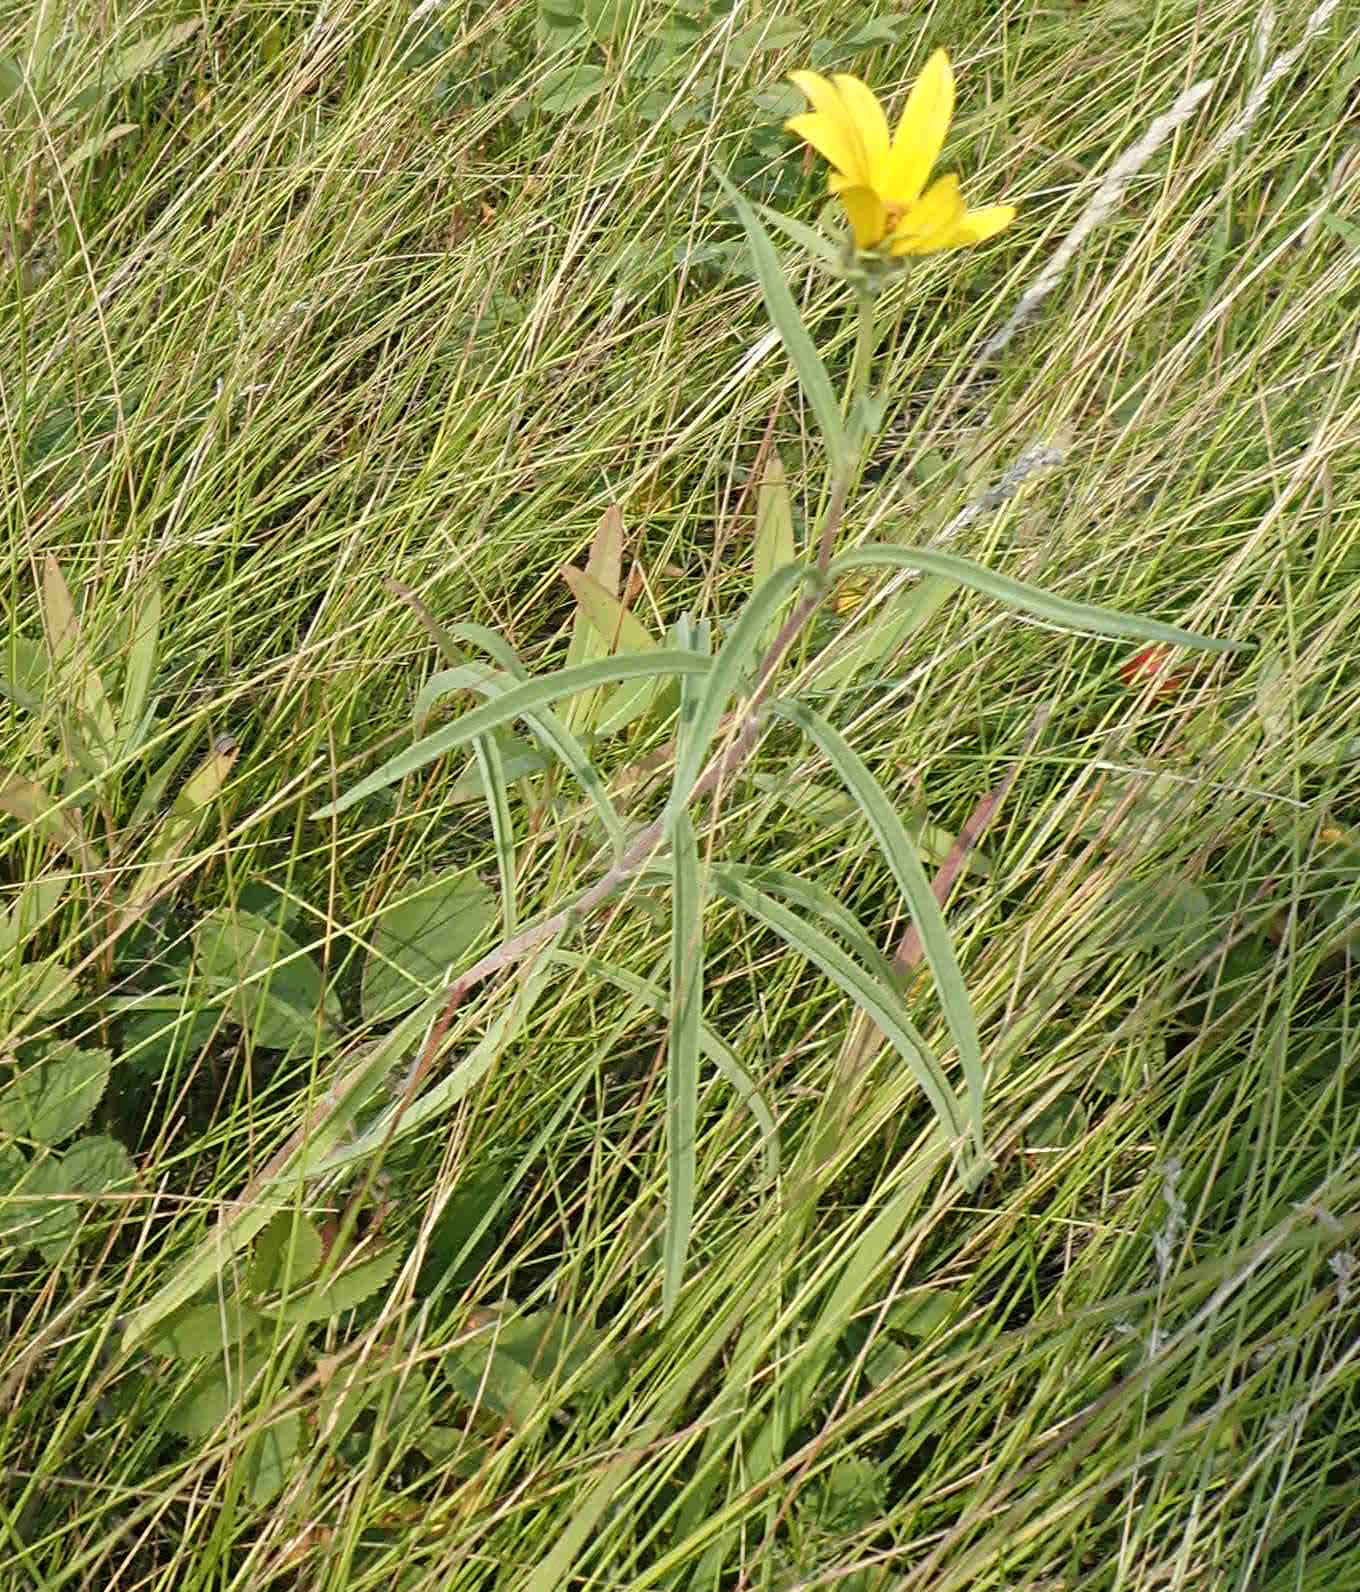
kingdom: Plantae
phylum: Tracheophyta
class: Magnoliopsida
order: Asterales
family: Asteraceae
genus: Helianthus
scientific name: Helianthus maximiliani
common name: Maximilian's sunflower
